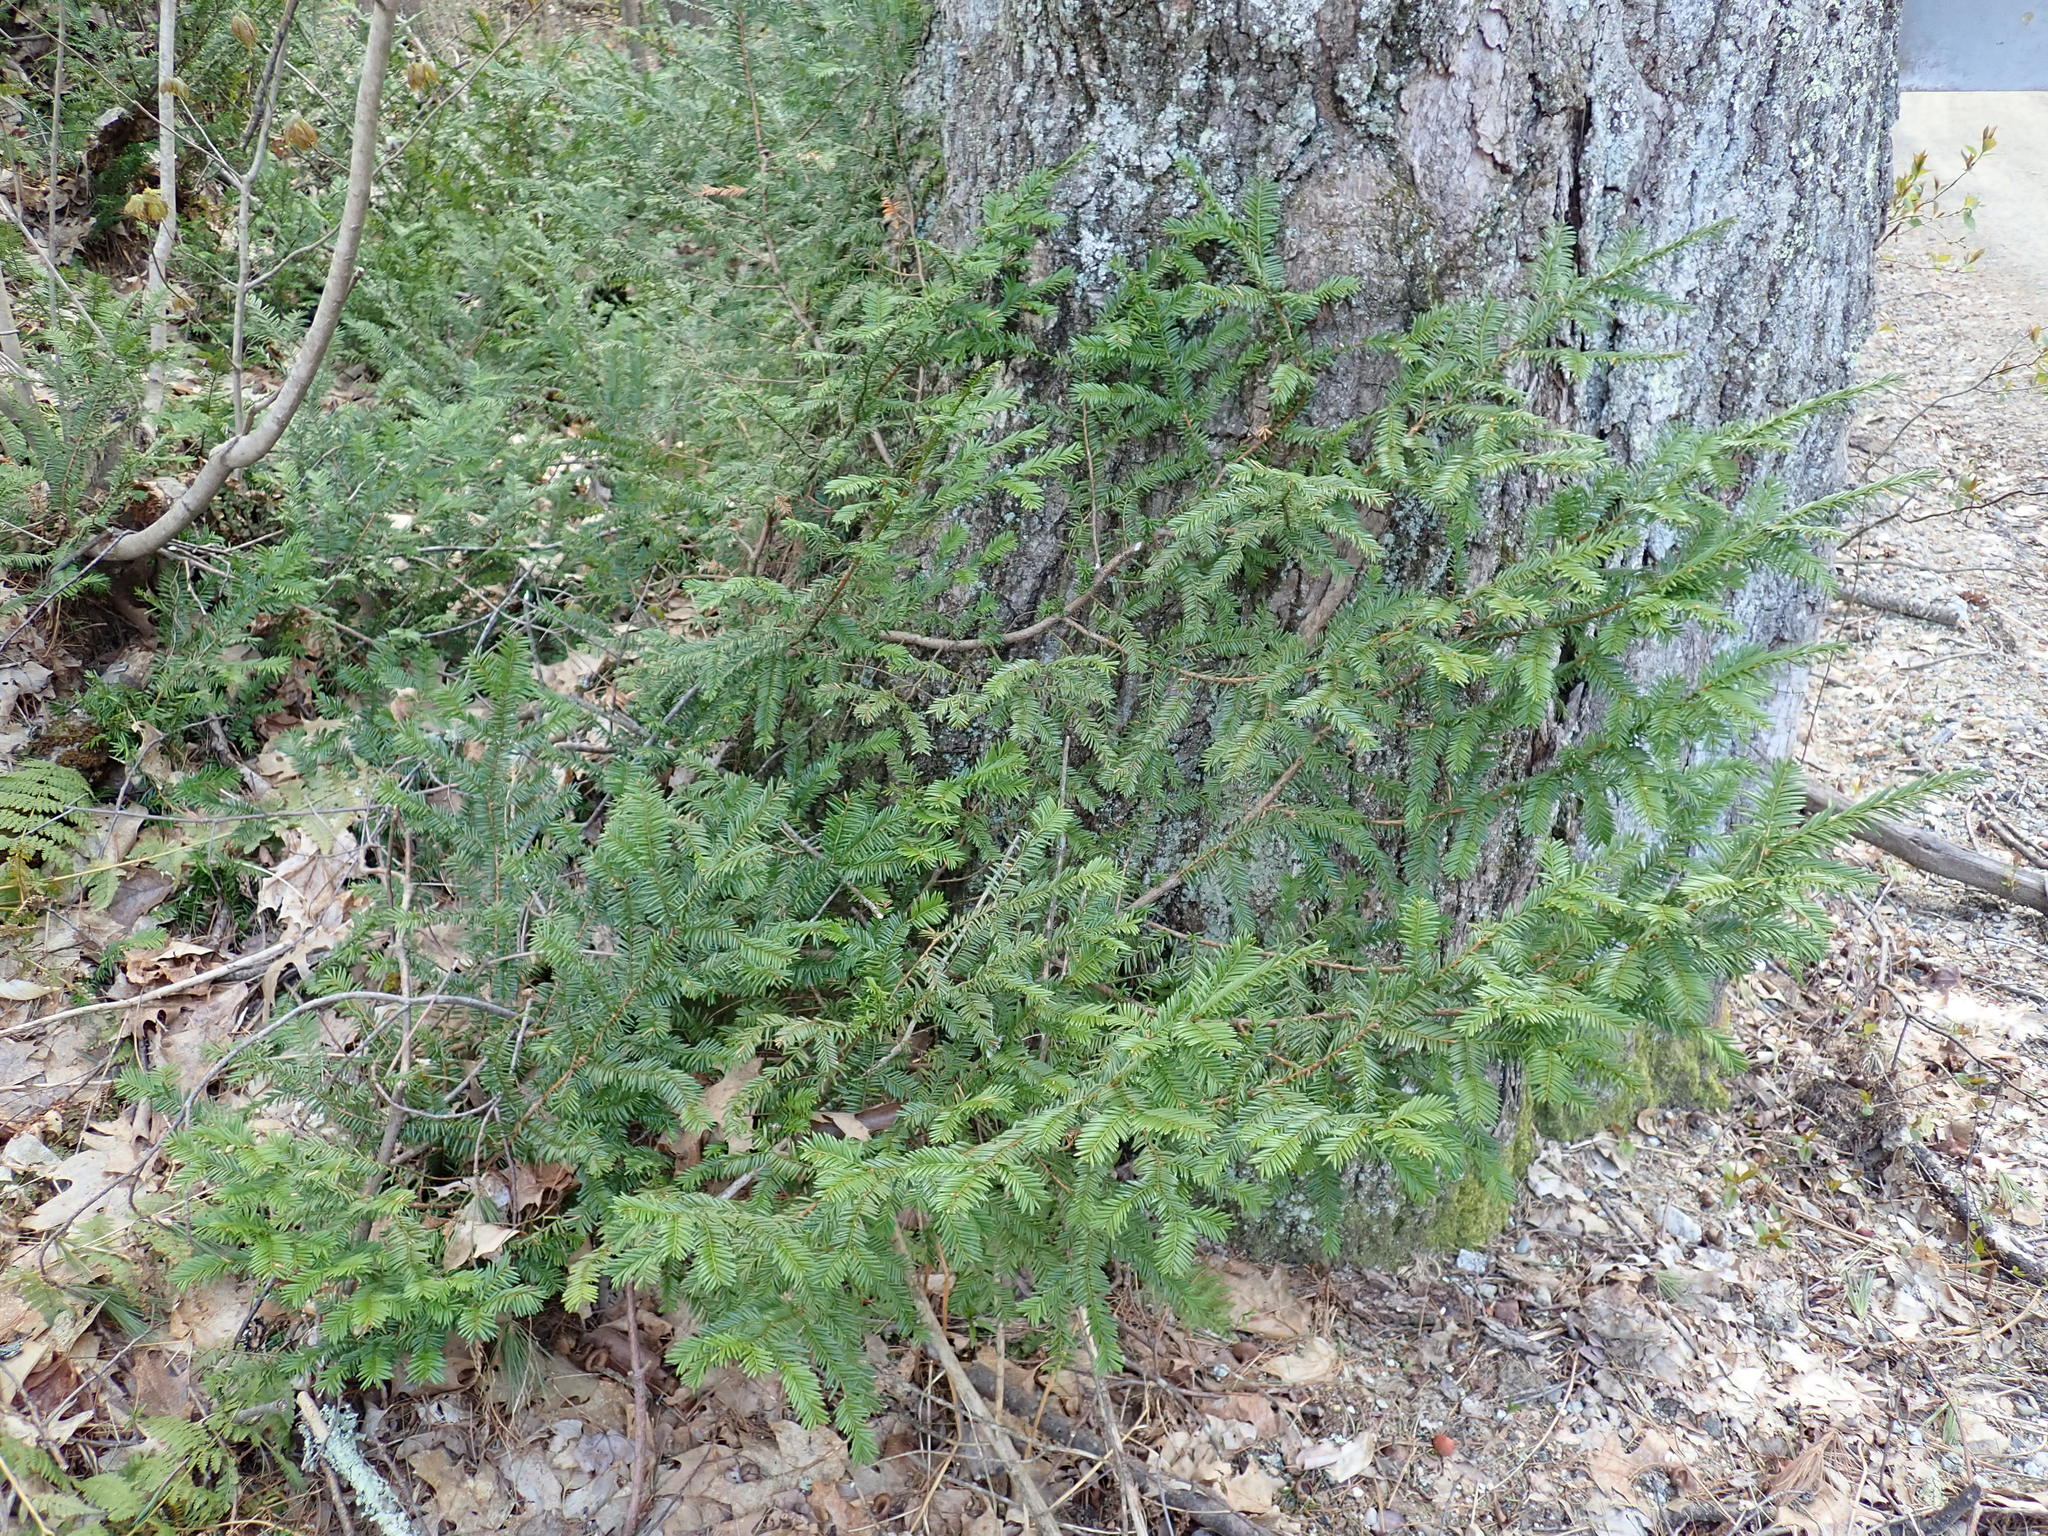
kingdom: Plantae
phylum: Tracheophyta
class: Pinopsida
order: Pinales
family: Taxaceae
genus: Taxus
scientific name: Taxus canadensis
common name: American yew
